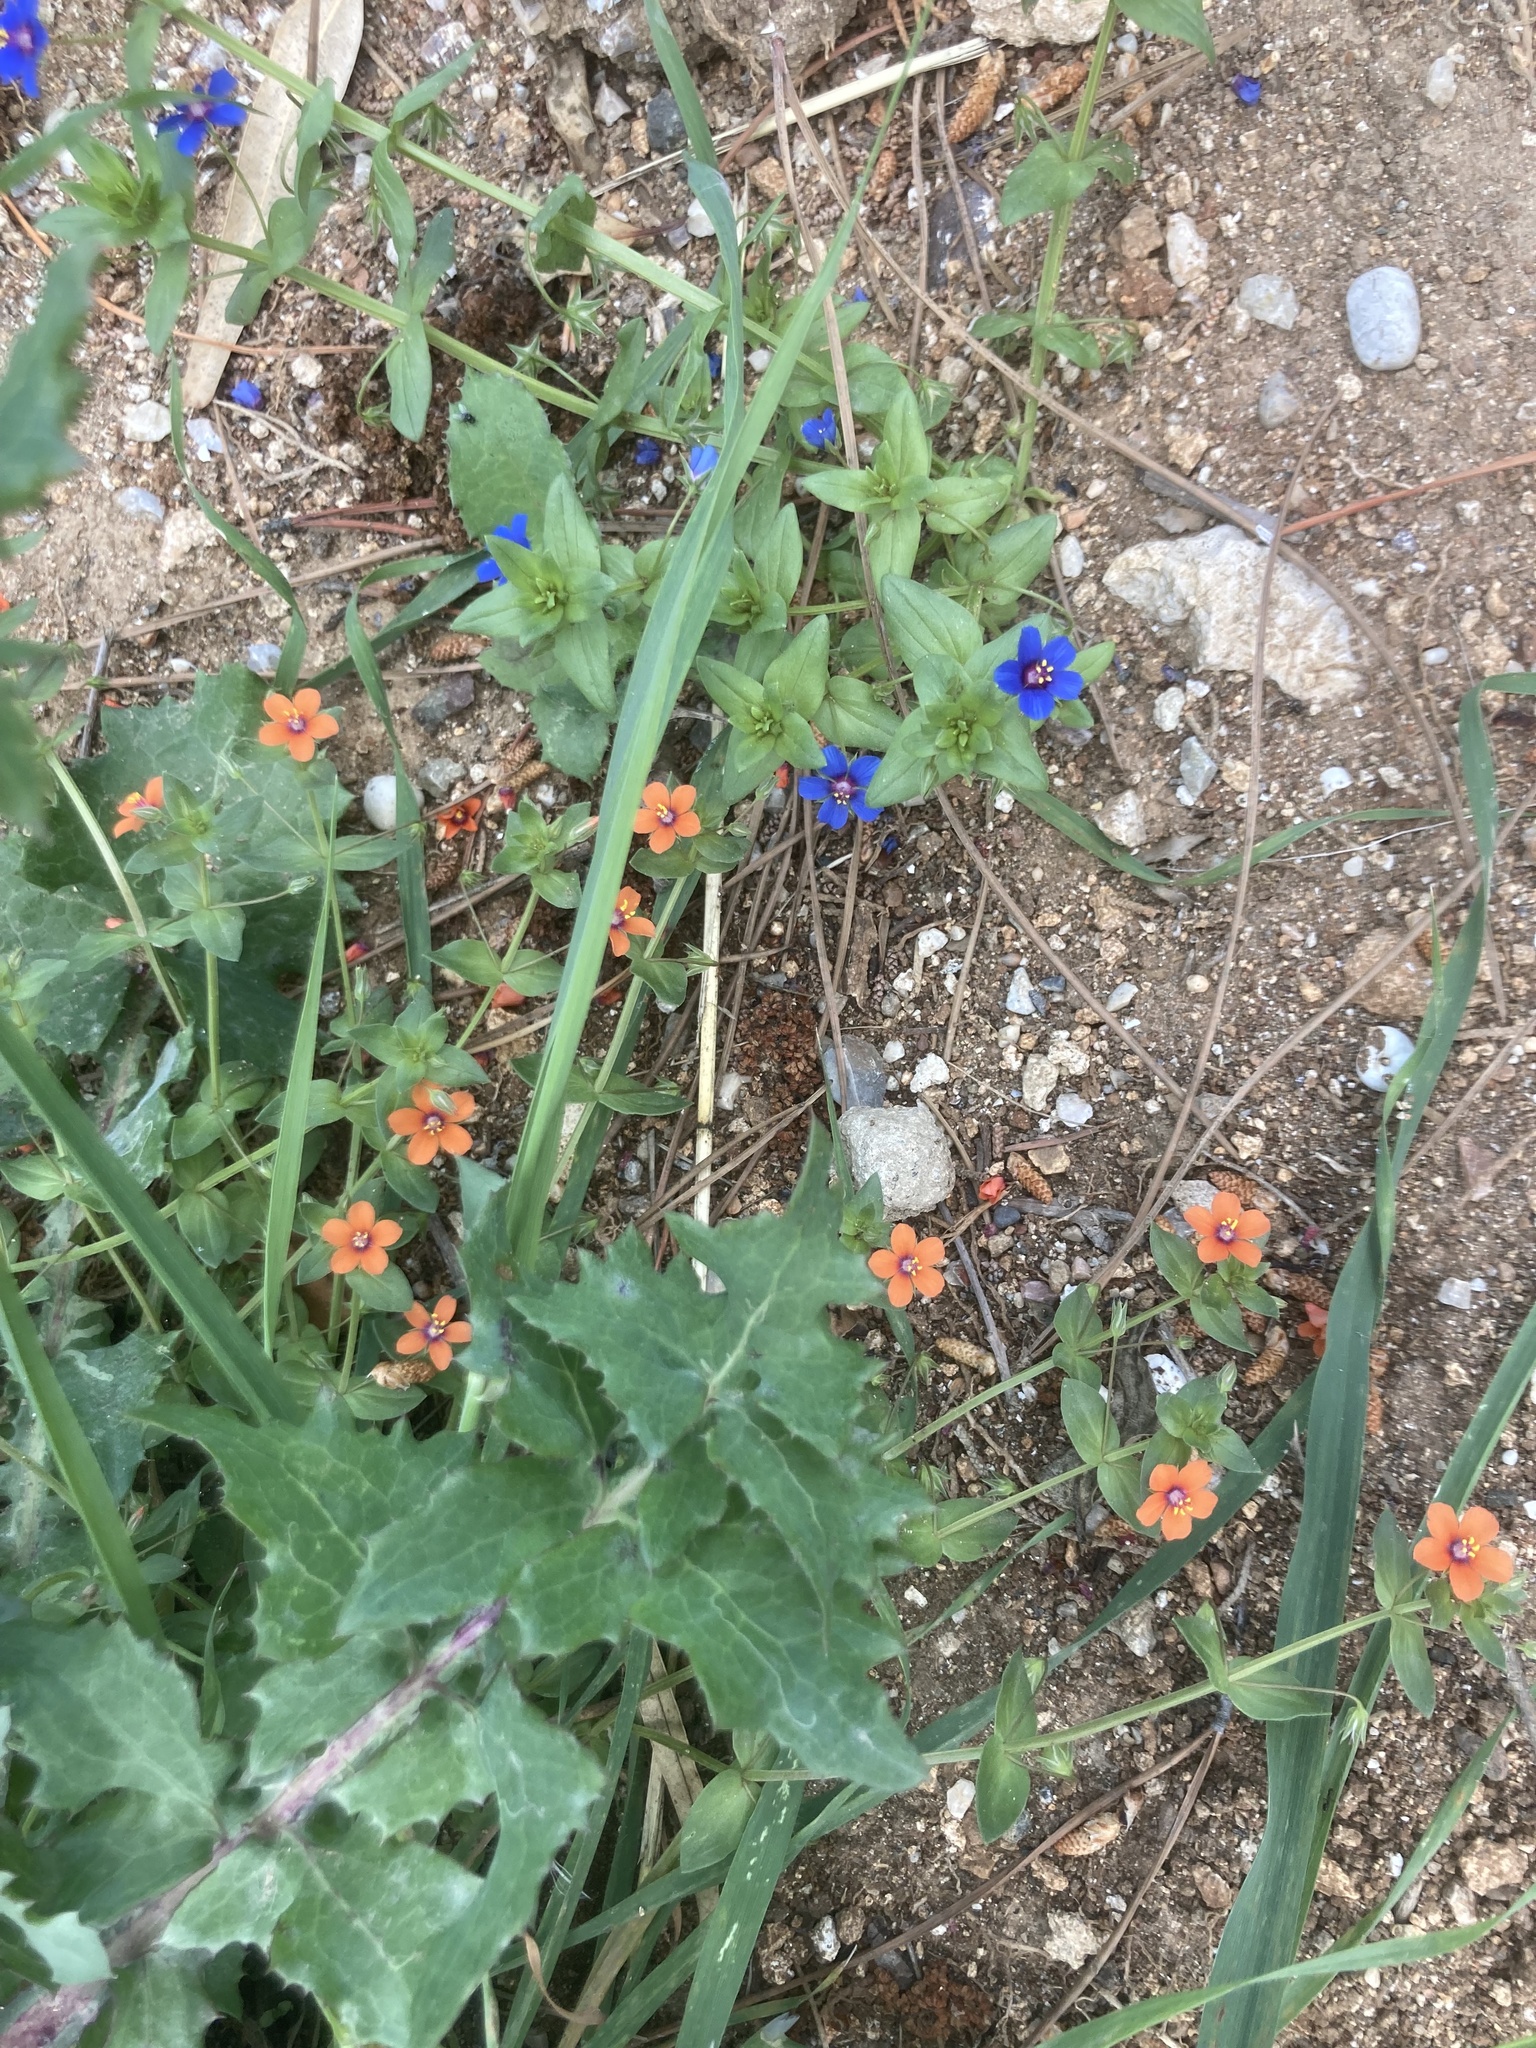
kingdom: Plantae
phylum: Tracheophyta
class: Magnoliopsida
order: Ericales
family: Primulaceae
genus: Lysimachia
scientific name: Lysimachia arvensis
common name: Scarlet pimpernel
